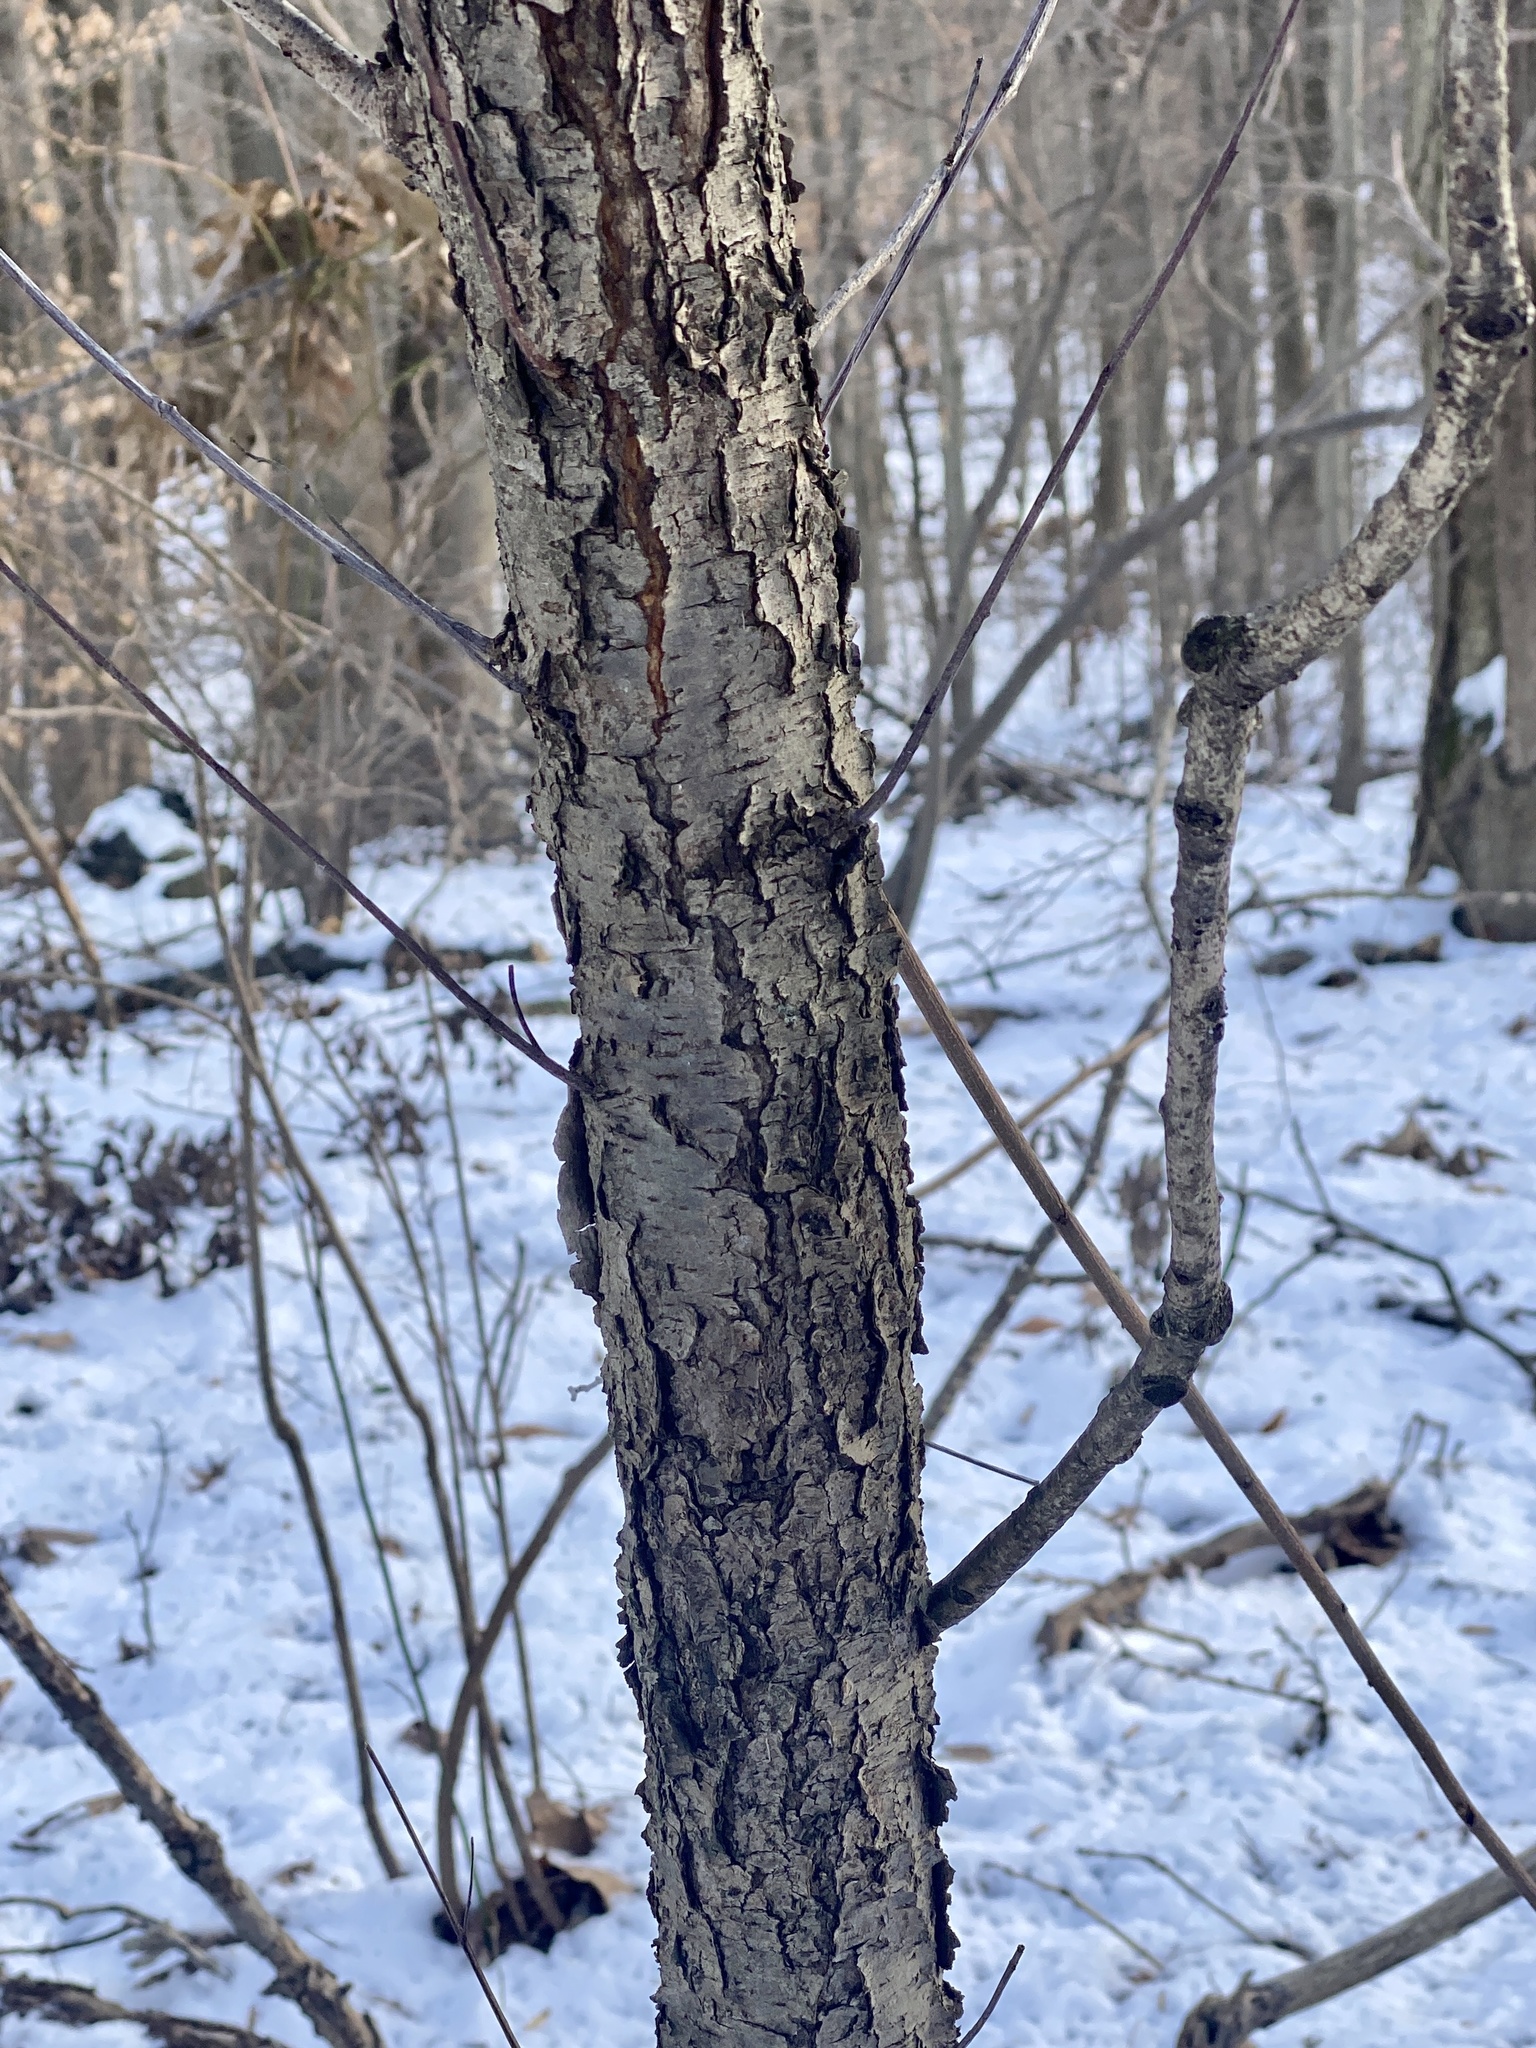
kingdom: Plantae
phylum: Tracheophyta
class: Magnoliopsida
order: Rosales
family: Rosaceae
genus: Prunus
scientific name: Prunus serotina
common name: Black cherry
